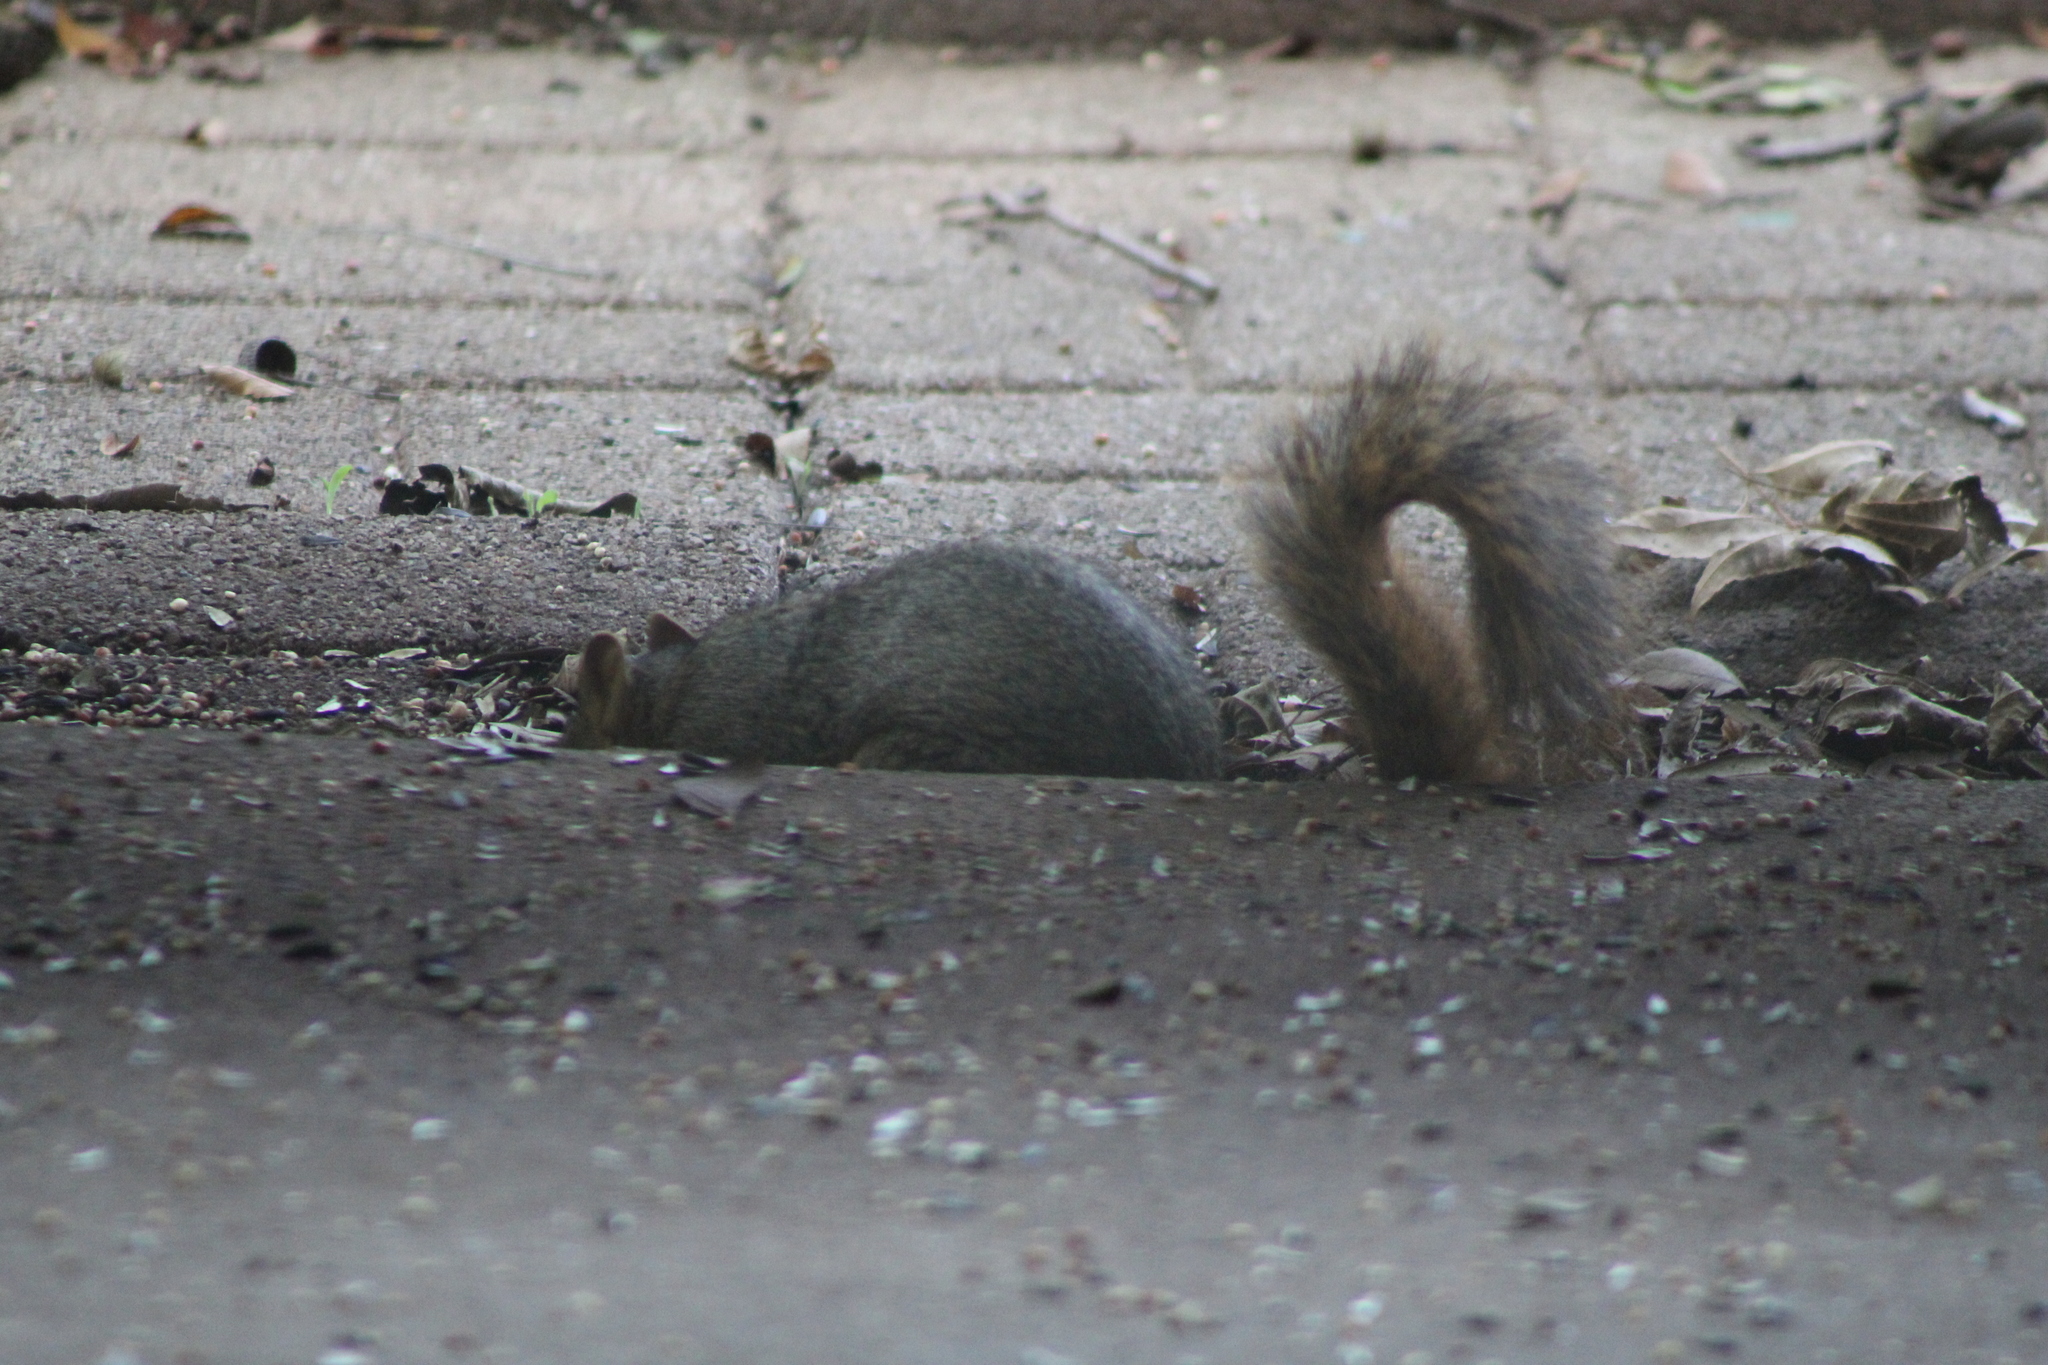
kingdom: Animalia
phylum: Chordata
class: Mammalia
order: Rodentia
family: Sciuridae
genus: Sciurus
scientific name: Sciurus niger
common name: Fox squirrel
